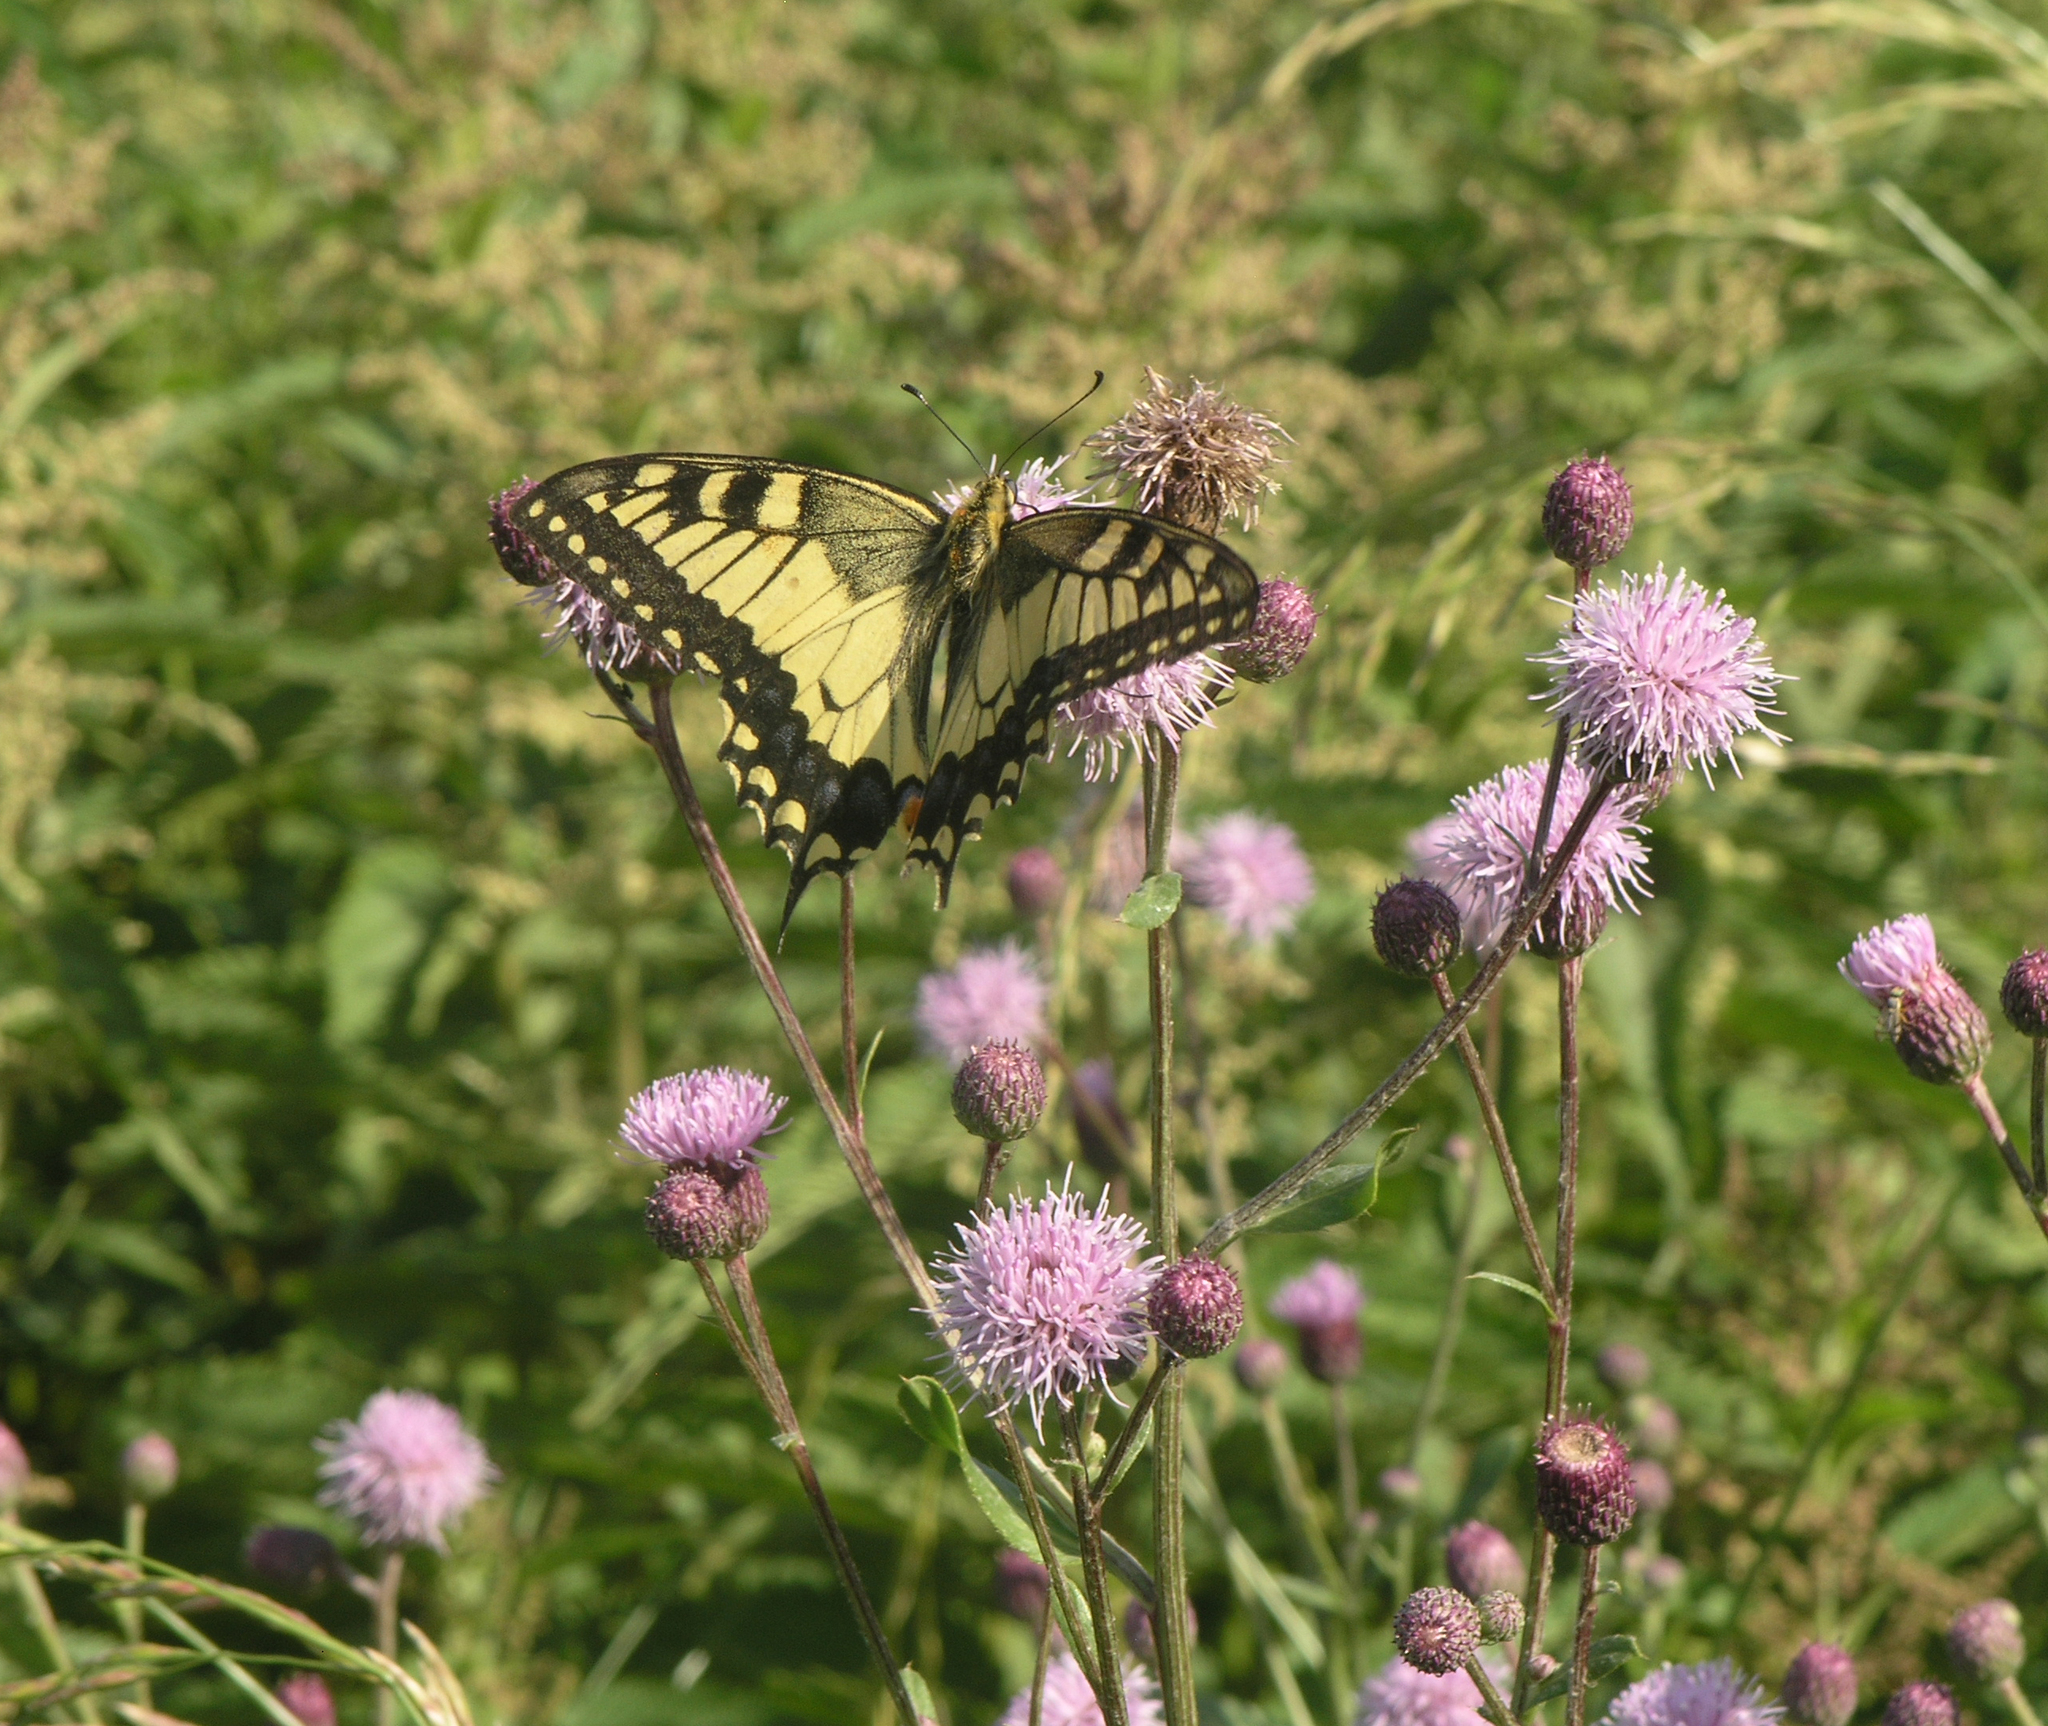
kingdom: Animalia
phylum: Arthropoda
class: Insecta
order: Lepidoptera
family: Papilionidae
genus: Papilio
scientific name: Papilio machaon
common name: Swallowtail
